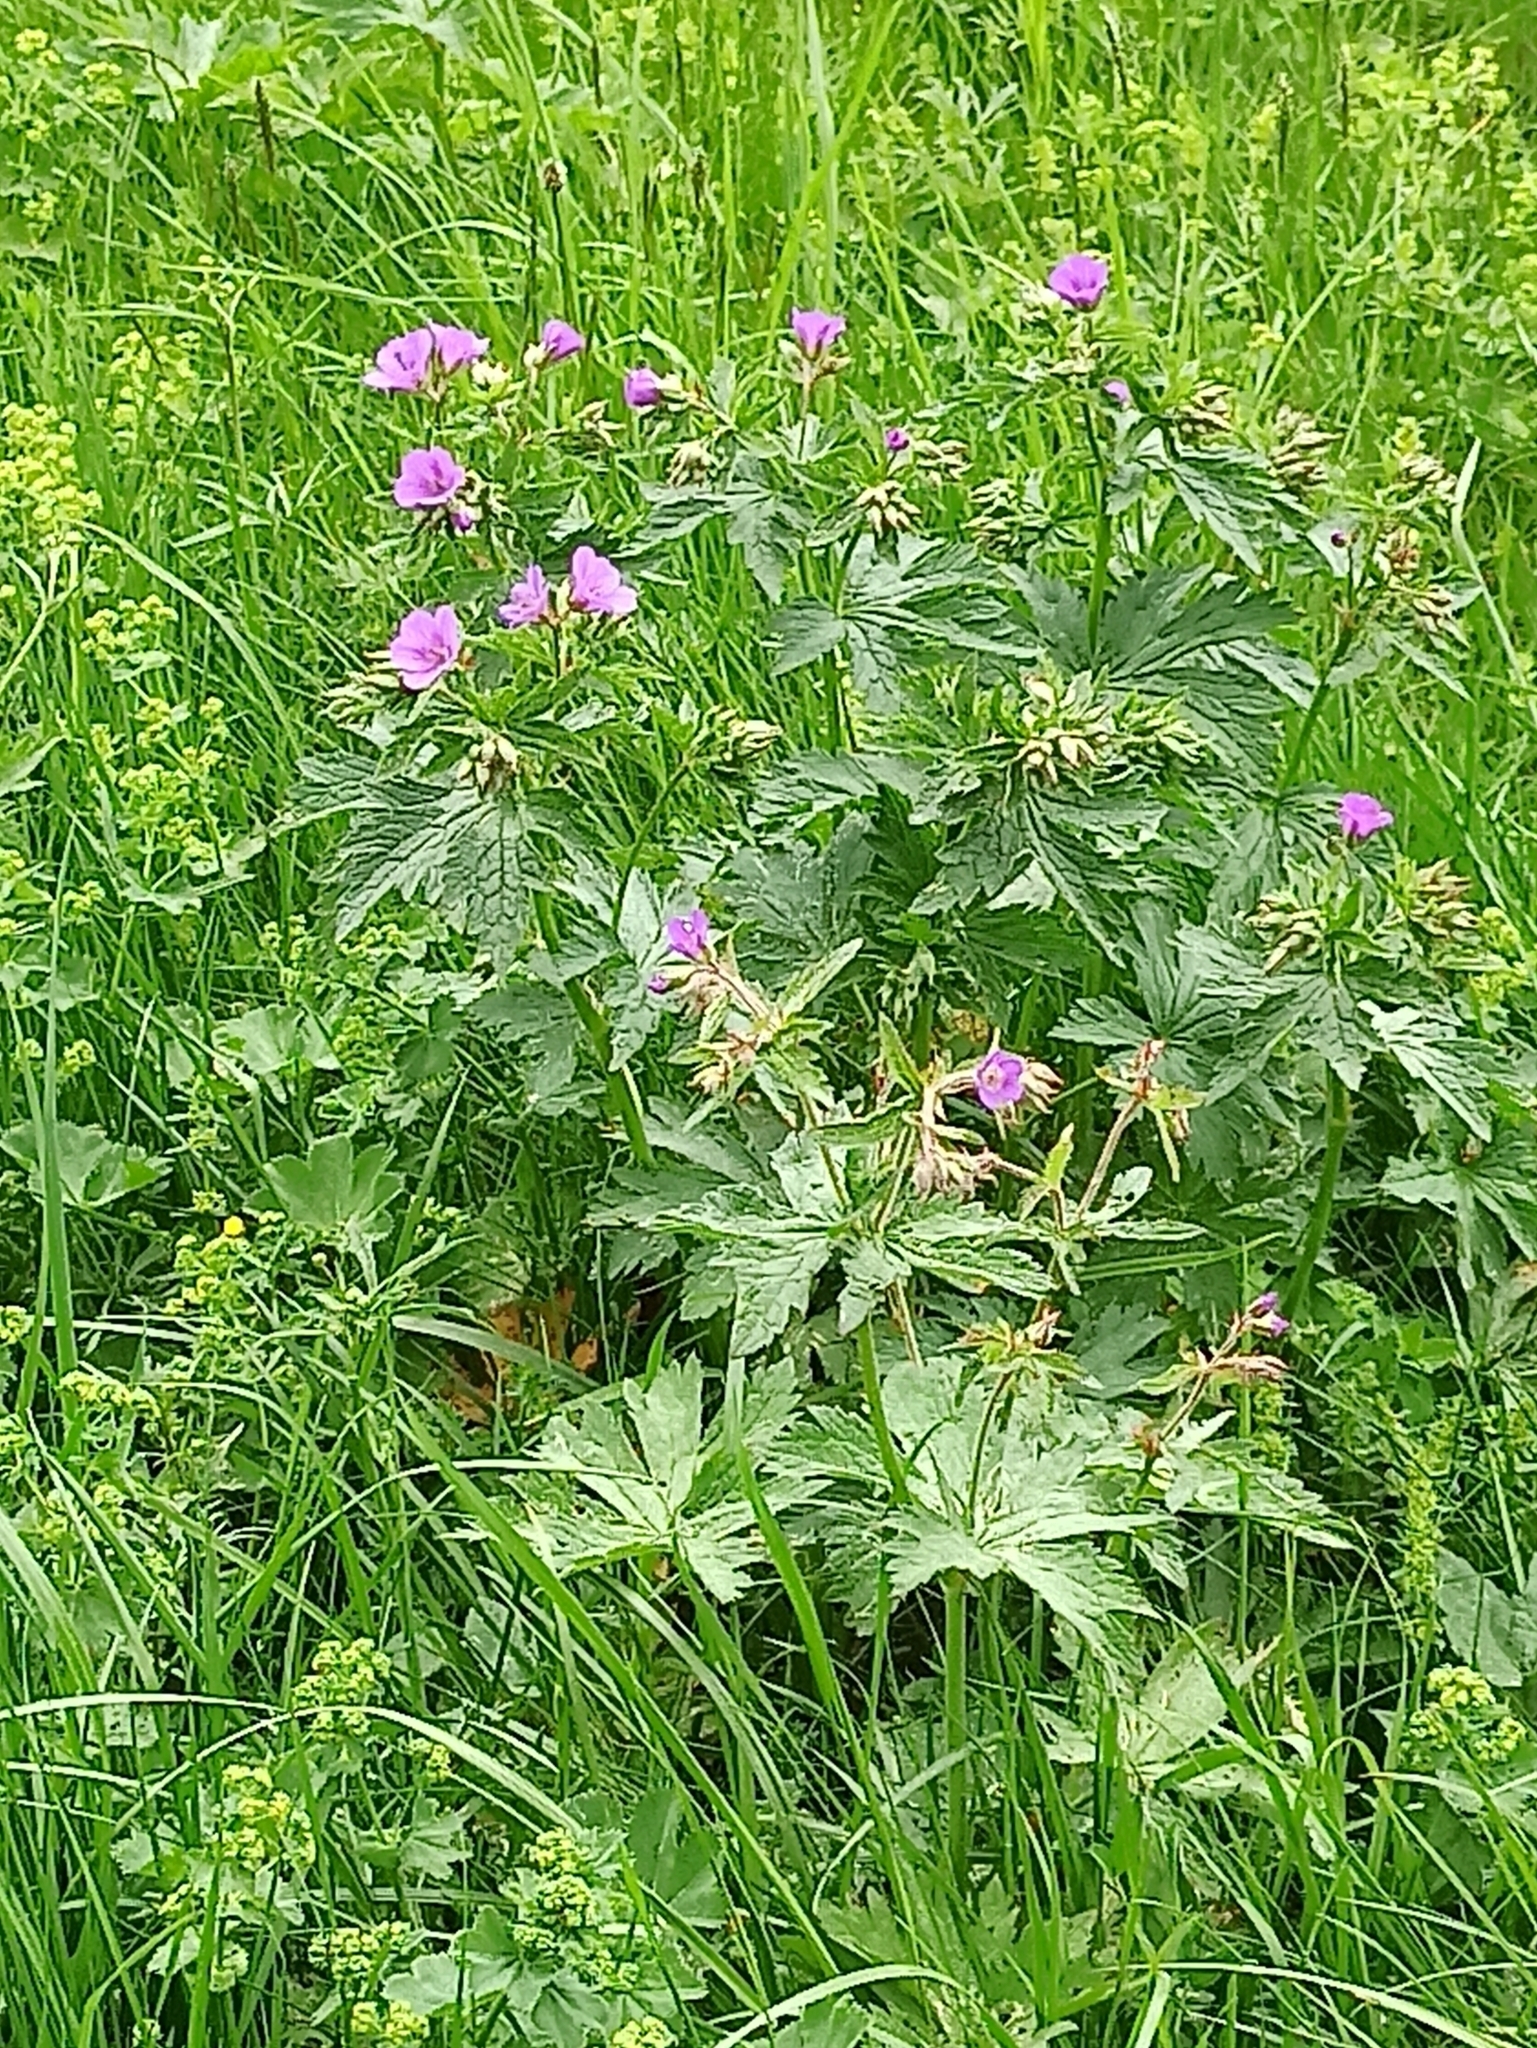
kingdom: Plantae
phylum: Tracheophyta
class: Magnoliopsida
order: Geraniales
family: Geraniaceae
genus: Geranium
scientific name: Geranium pratense
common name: Meadow crane's-bill
